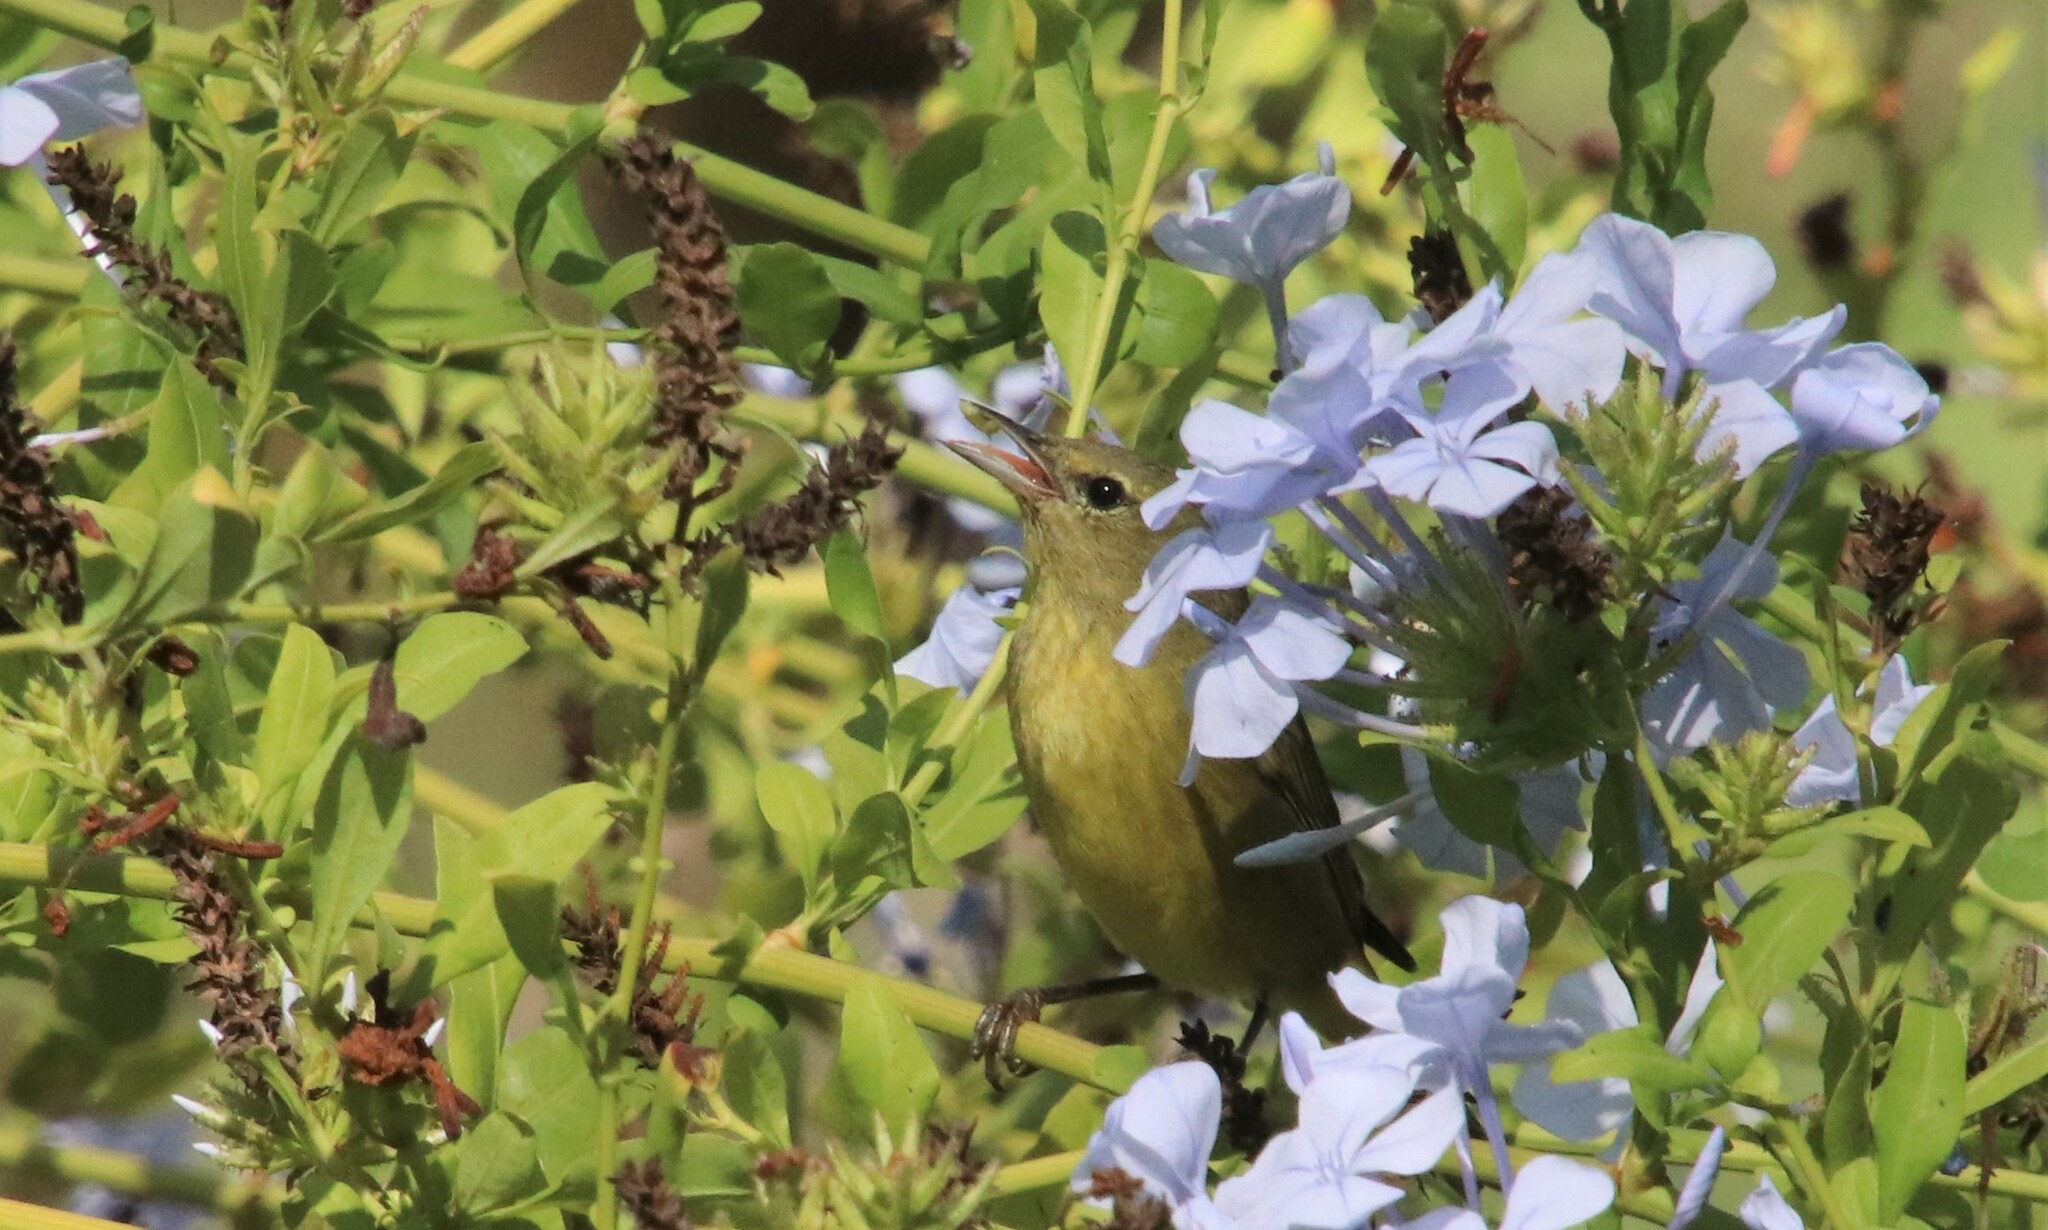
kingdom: Animalia
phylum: Chordata
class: Aves
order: Passeriformes
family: Parulidae
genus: Leiothlypis
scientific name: Leiothlypis celata
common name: Orange-crowned warbler
